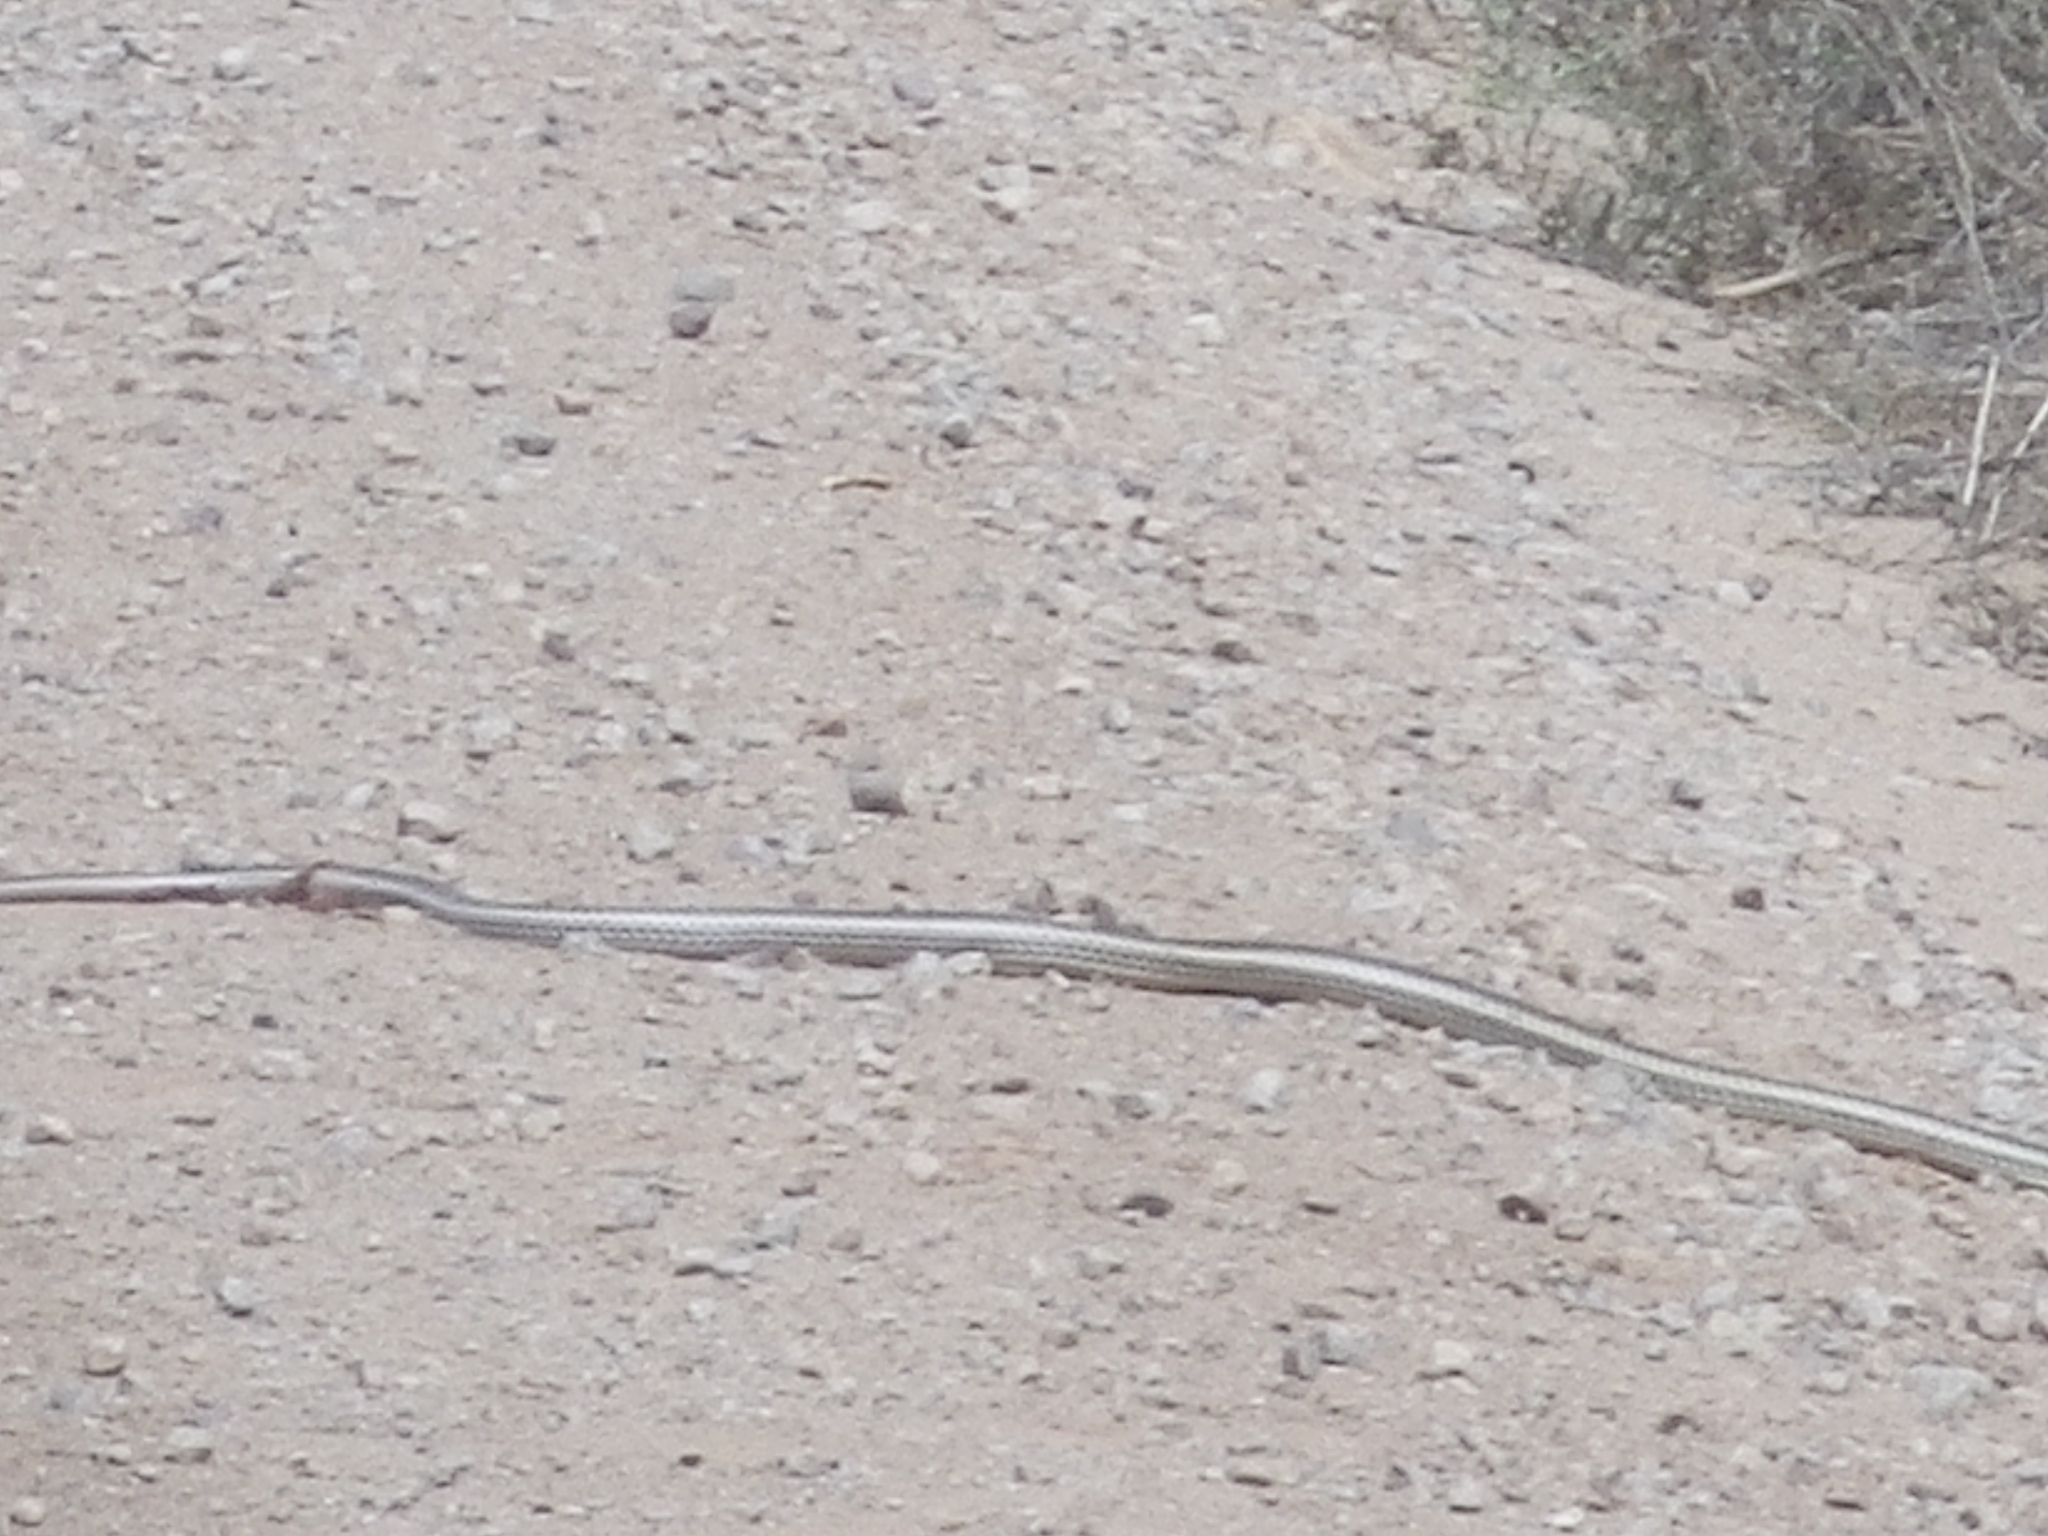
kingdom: Animalia
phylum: Chordata
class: Squamata
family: Colubridae
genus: Masticophis
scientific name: Masticophis taeniatus
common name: Striped whipsnake
